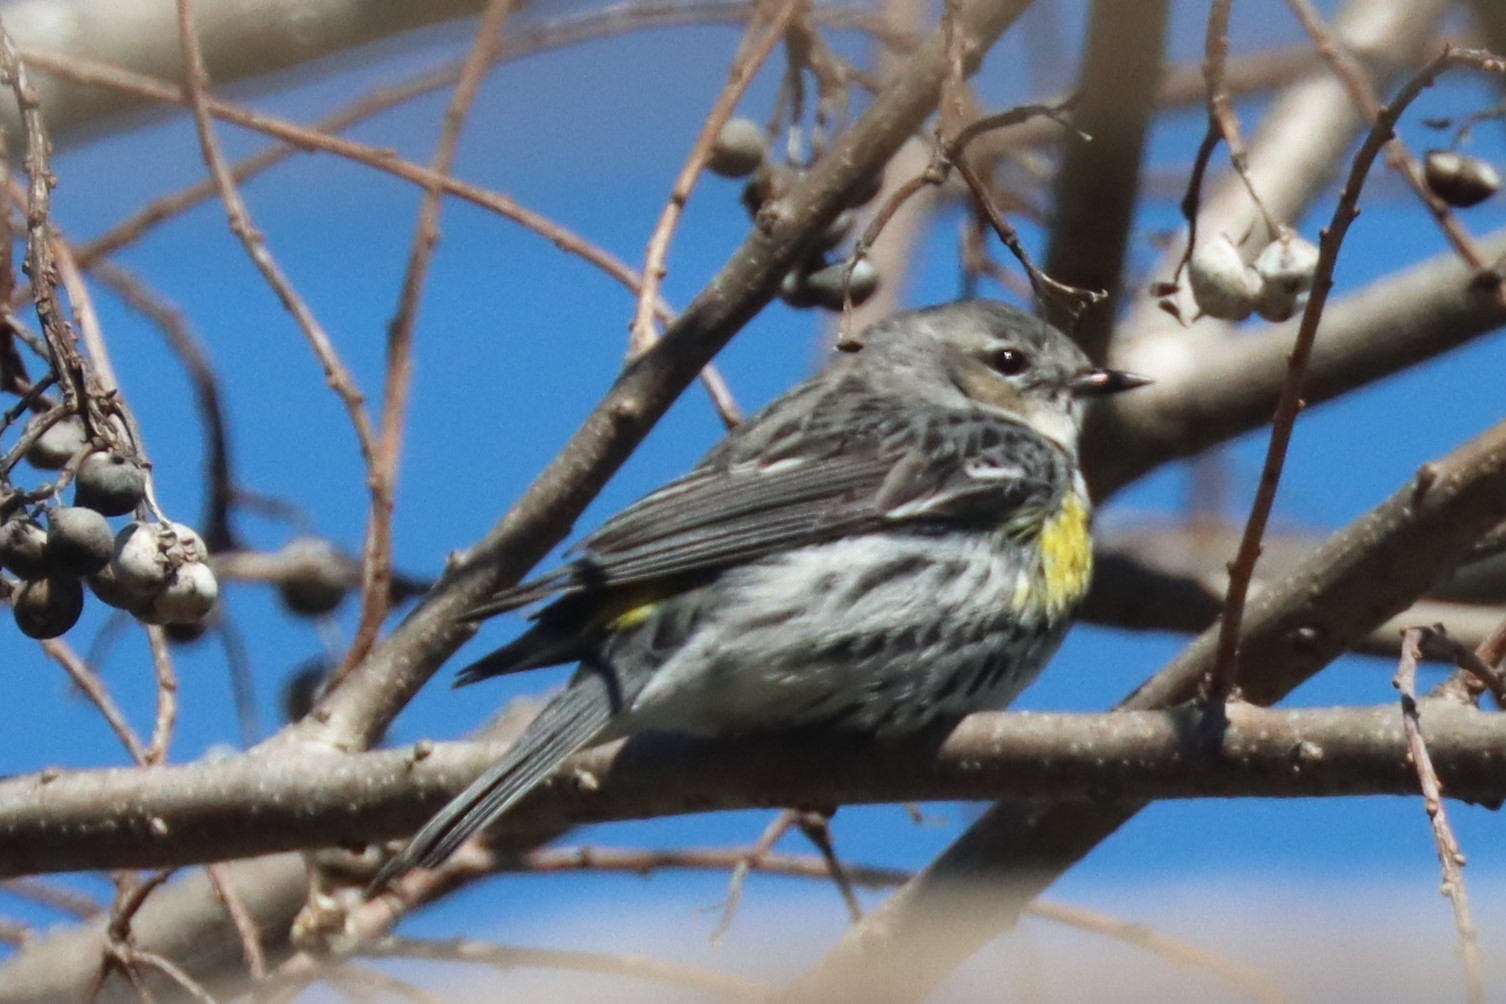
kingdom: Animalia
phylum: Chordata
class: Aves
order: Passeriformes
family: Parulidae
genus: Setophaga
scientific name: Setophaga coronata
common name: Myrtle warbler
